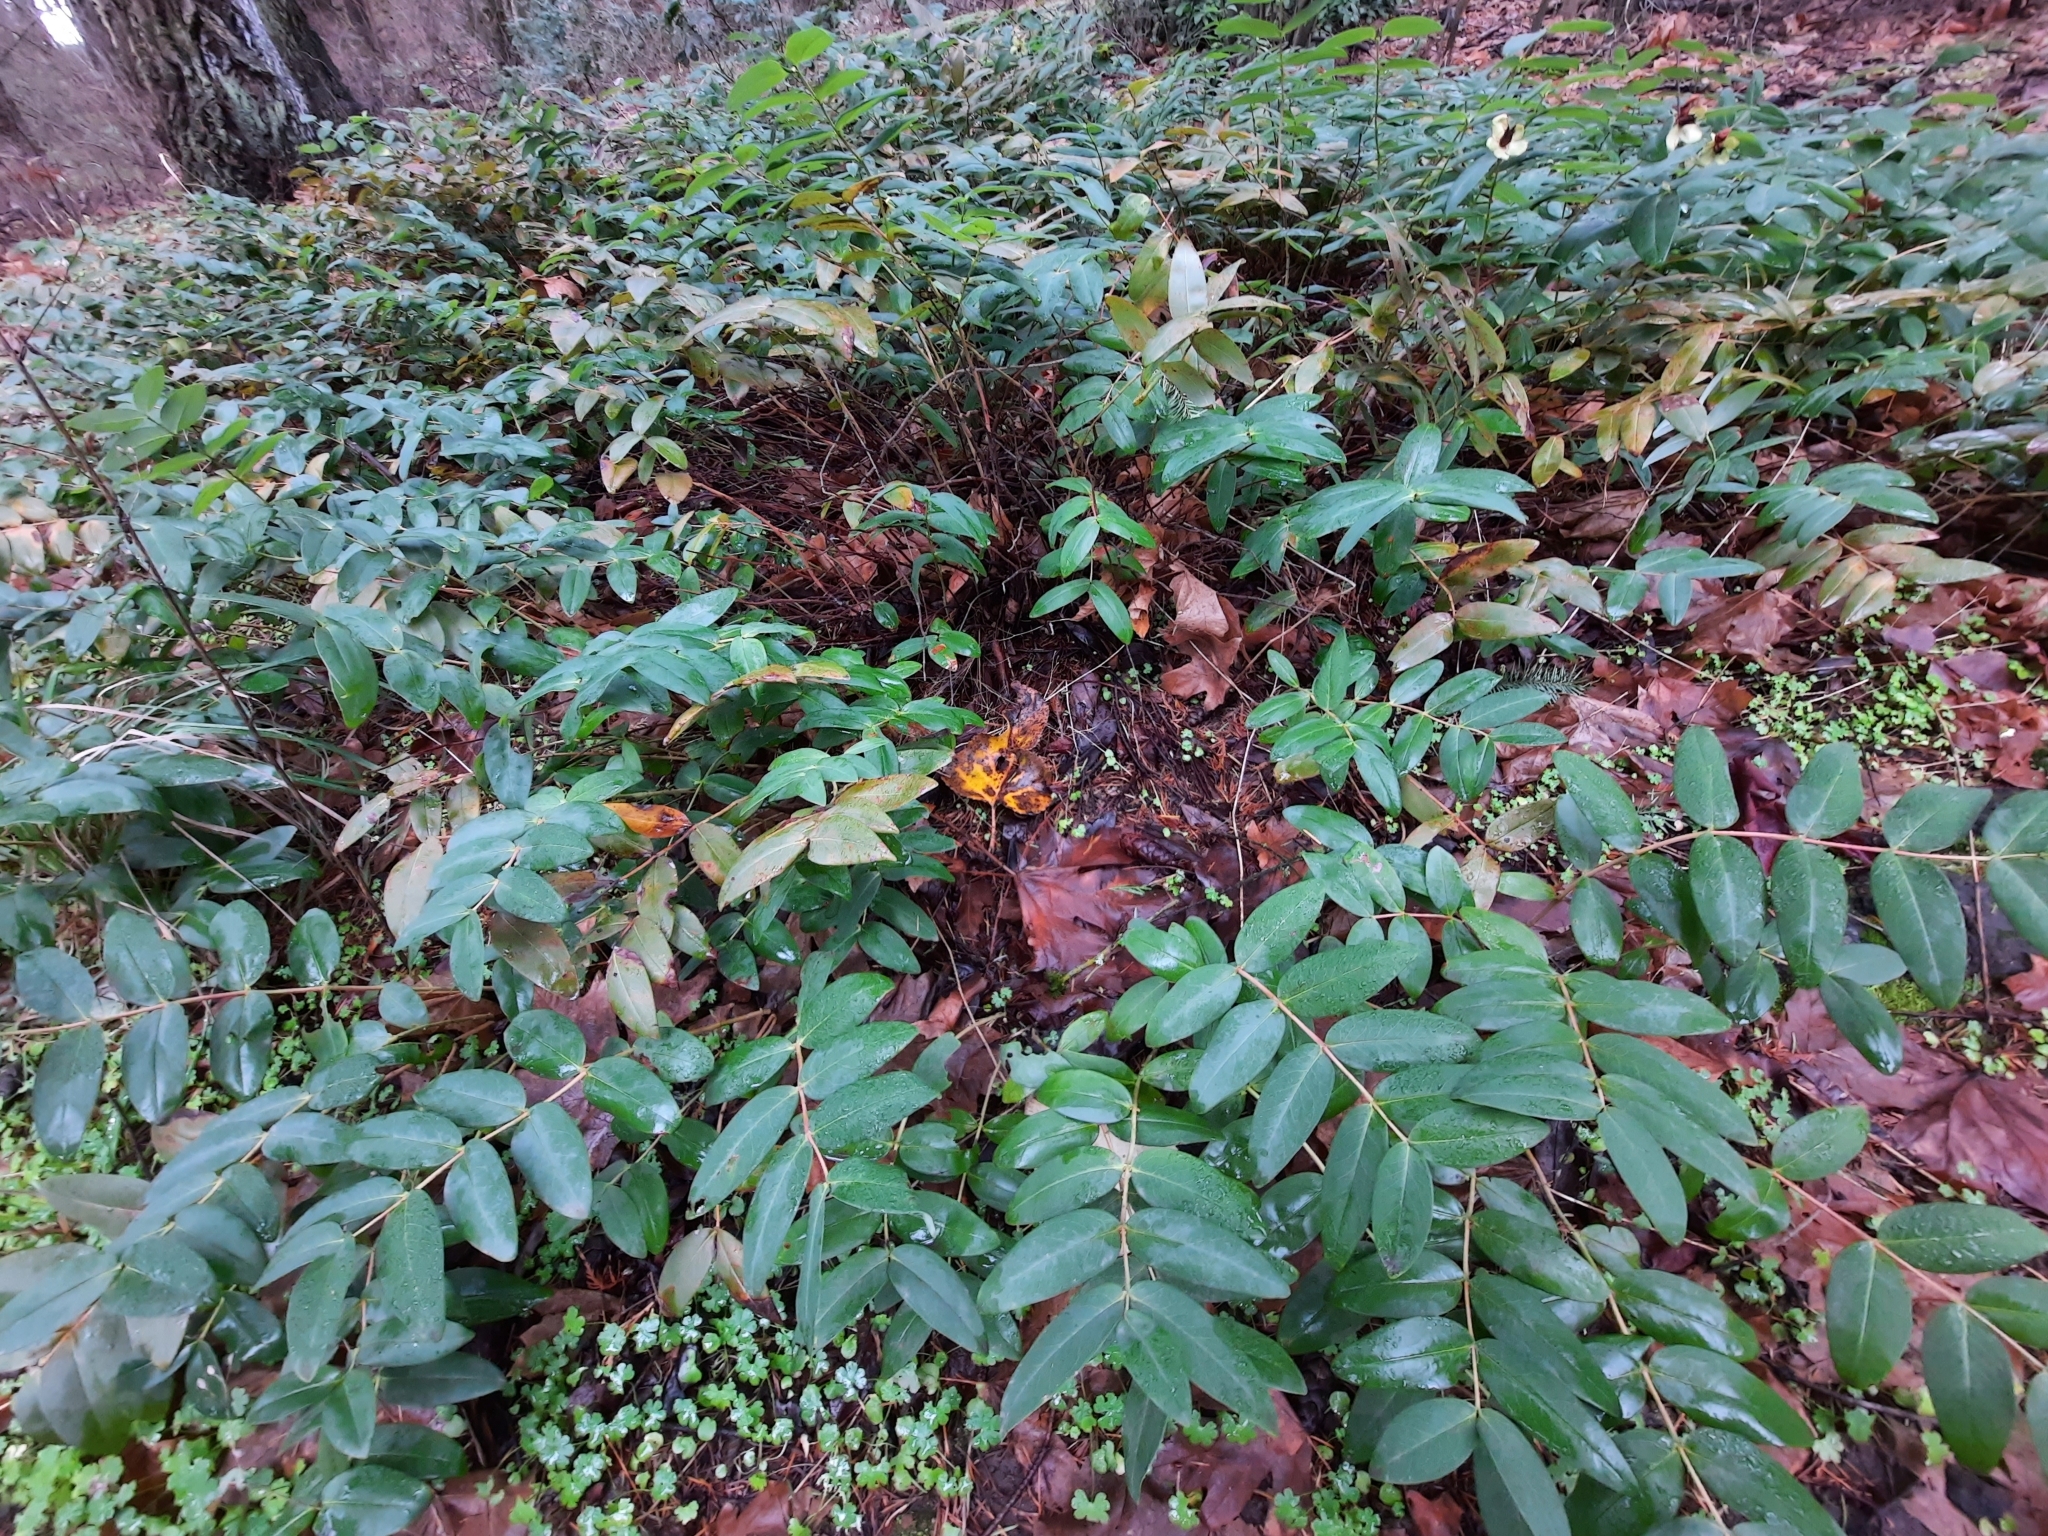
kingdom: Plantae
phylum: Tracheophyta
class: Magnoliopsida
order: Malpighiales
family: Hypericaceae
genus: Hypericum
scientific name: Hypericum calycinum
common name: Rose-of-sharon
